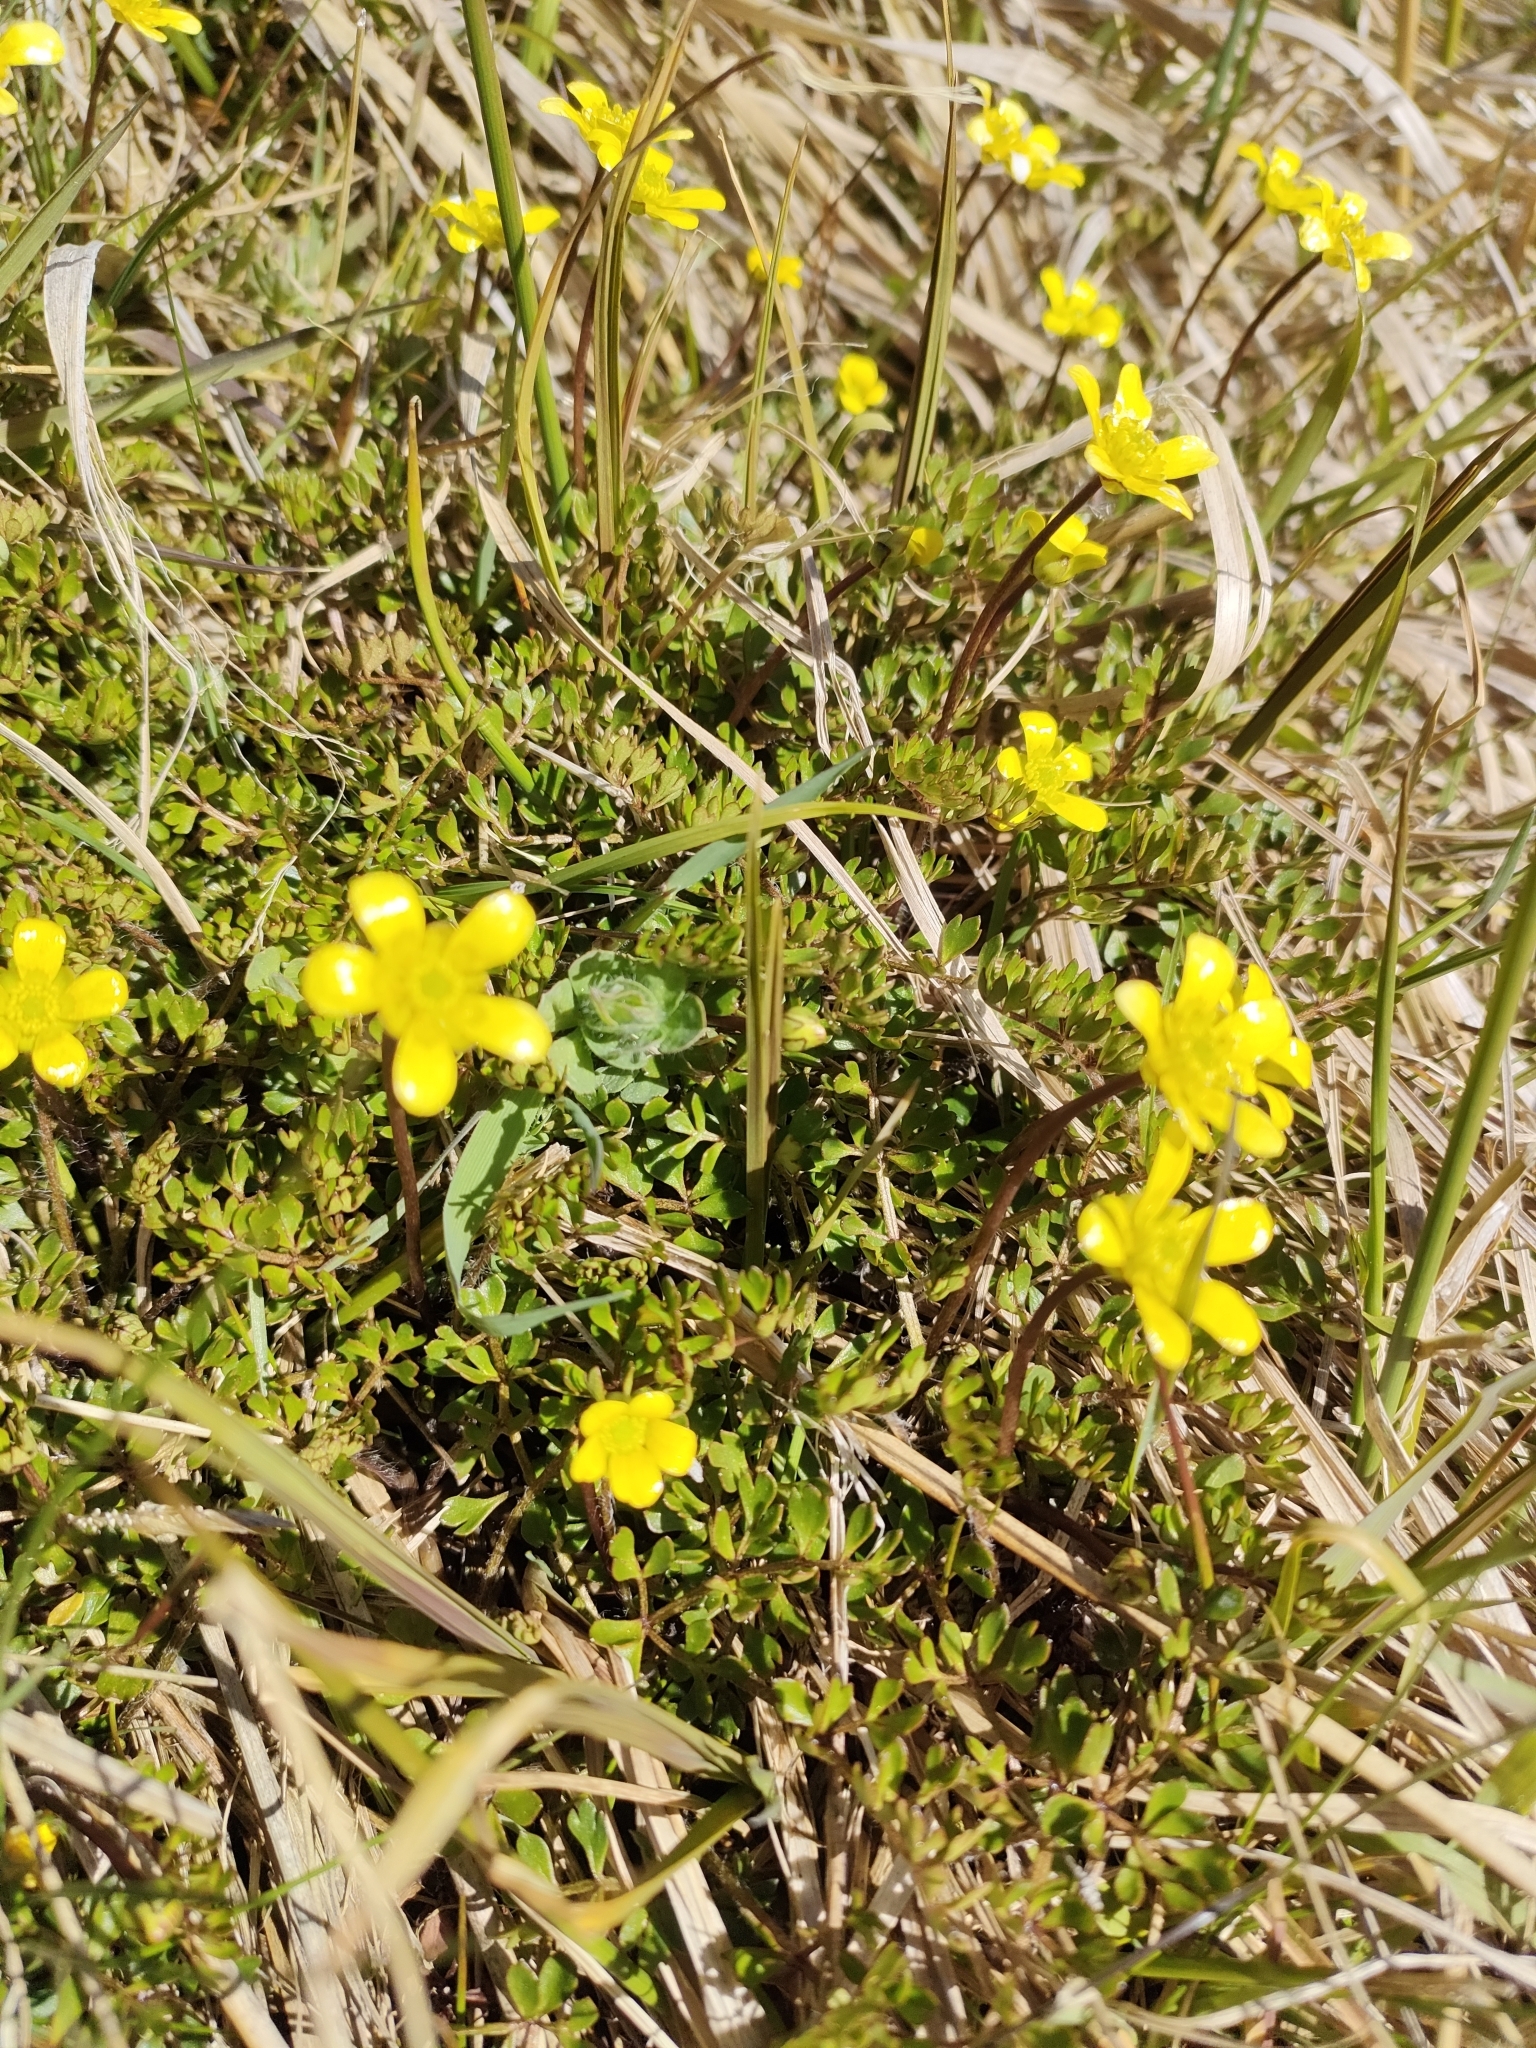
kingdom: Plantae
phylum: Tracheophyta
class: Magnoliopsida
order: Ranunculales
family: Ranunculaceae
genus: Ranunculus
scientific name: Ranunculus gracilipes
